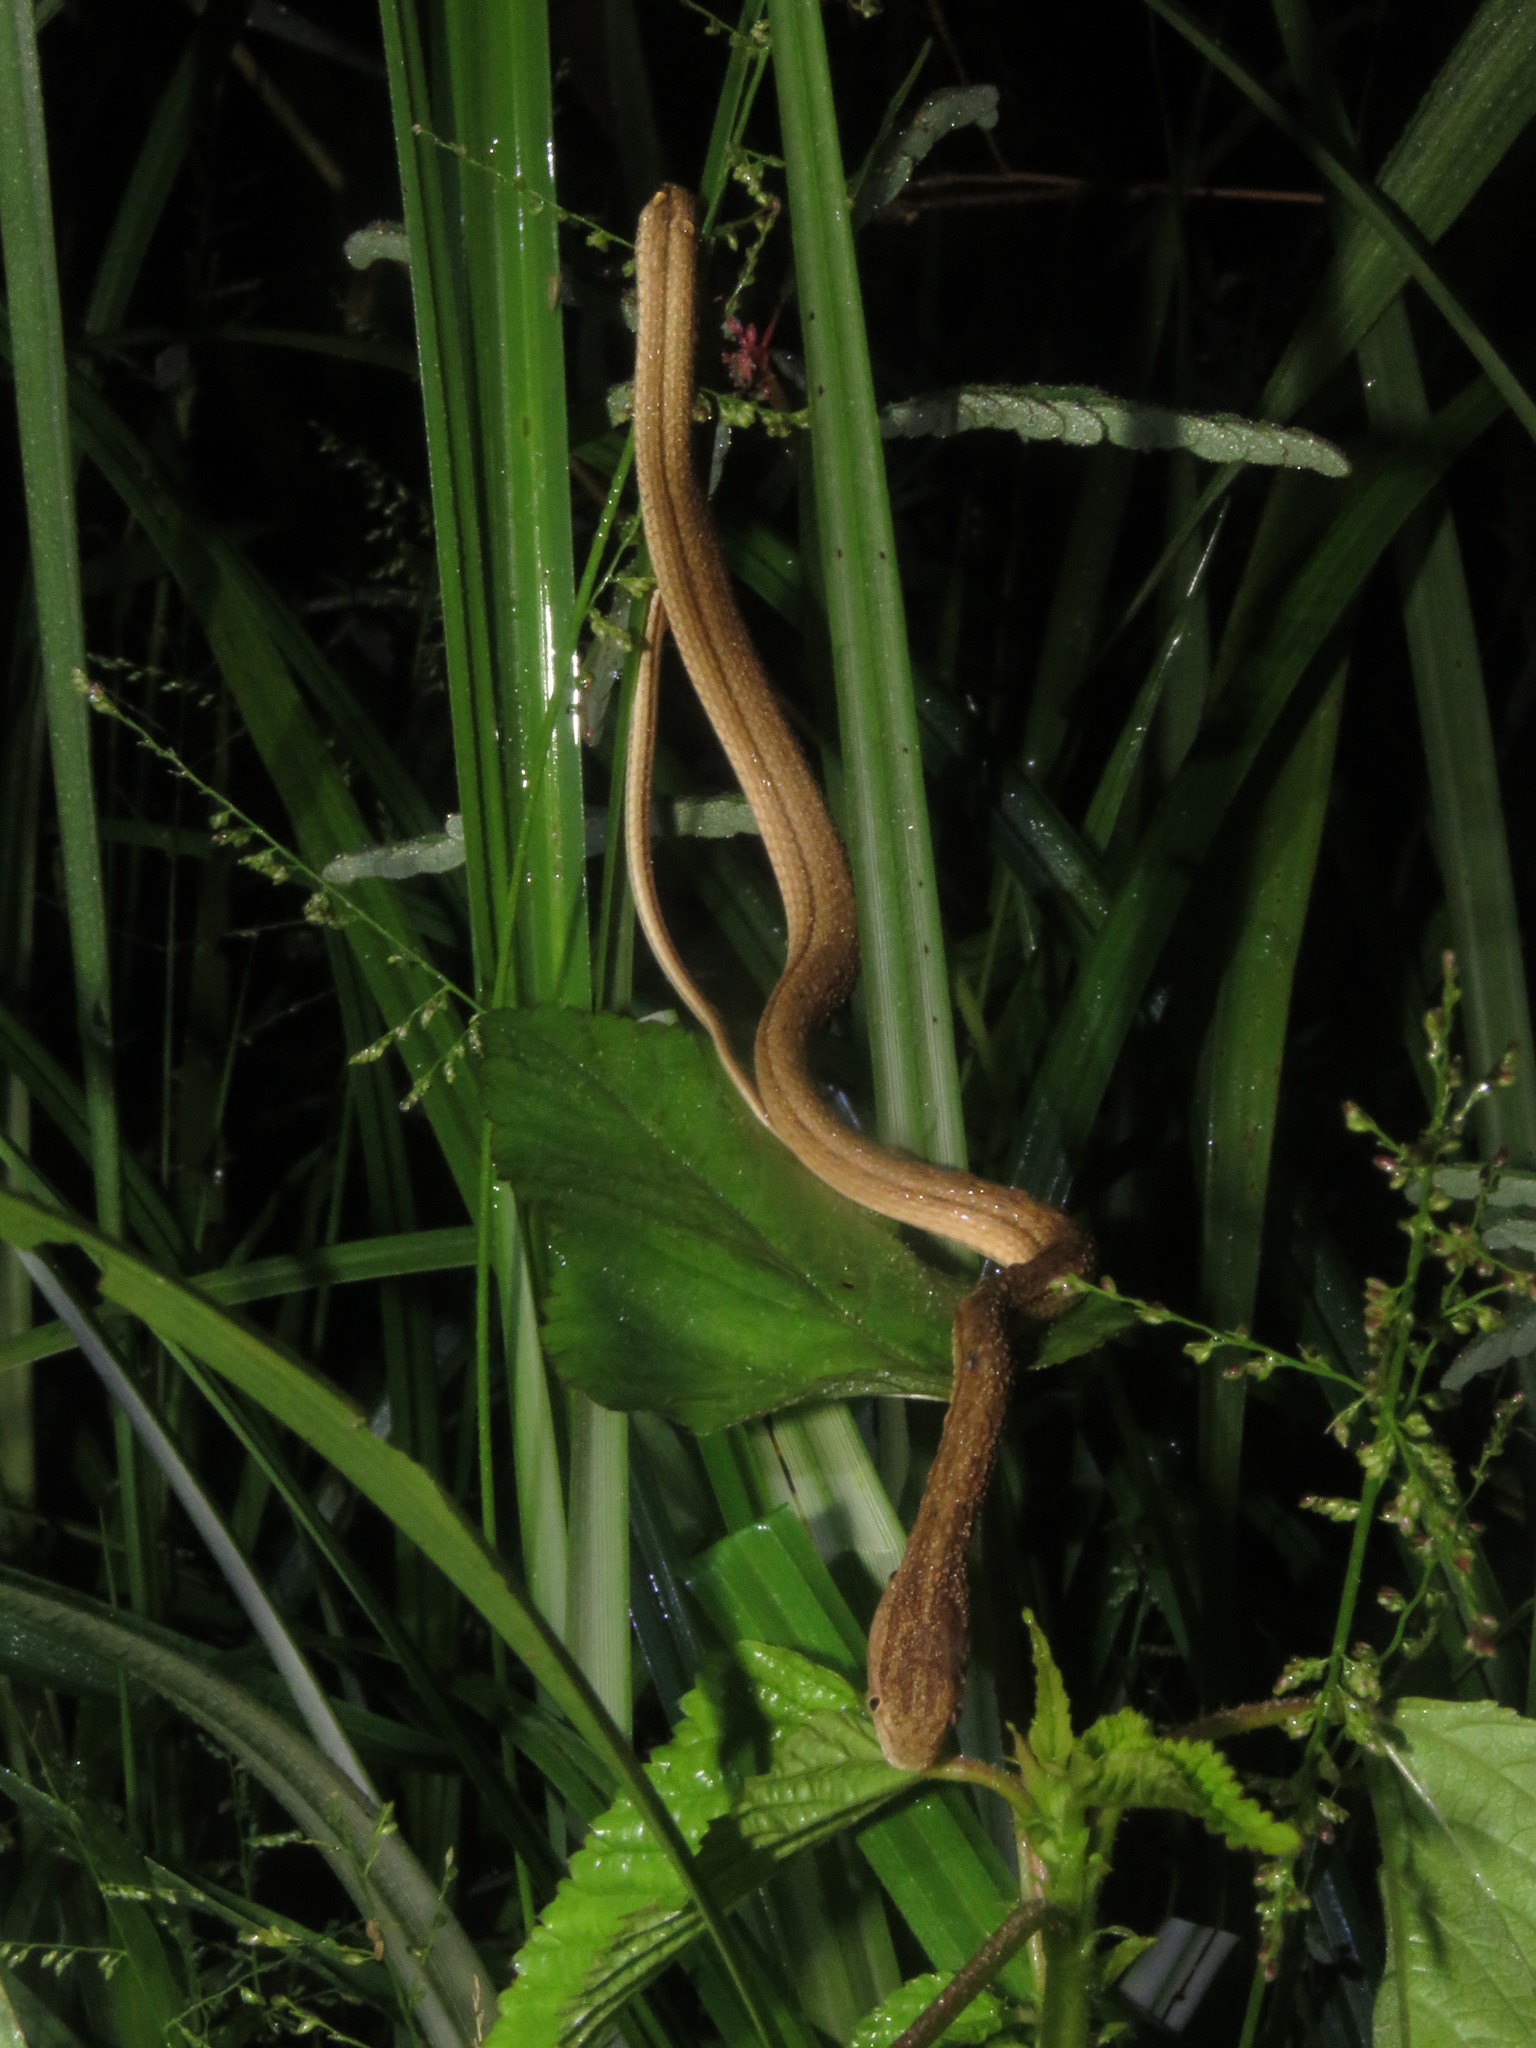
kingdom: Animalia
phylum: Chordata
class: Squamata
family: Colubridae
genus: Thamnodynastes
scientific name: Thamnodynastes pallidus
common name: Amazon coastal house snake
